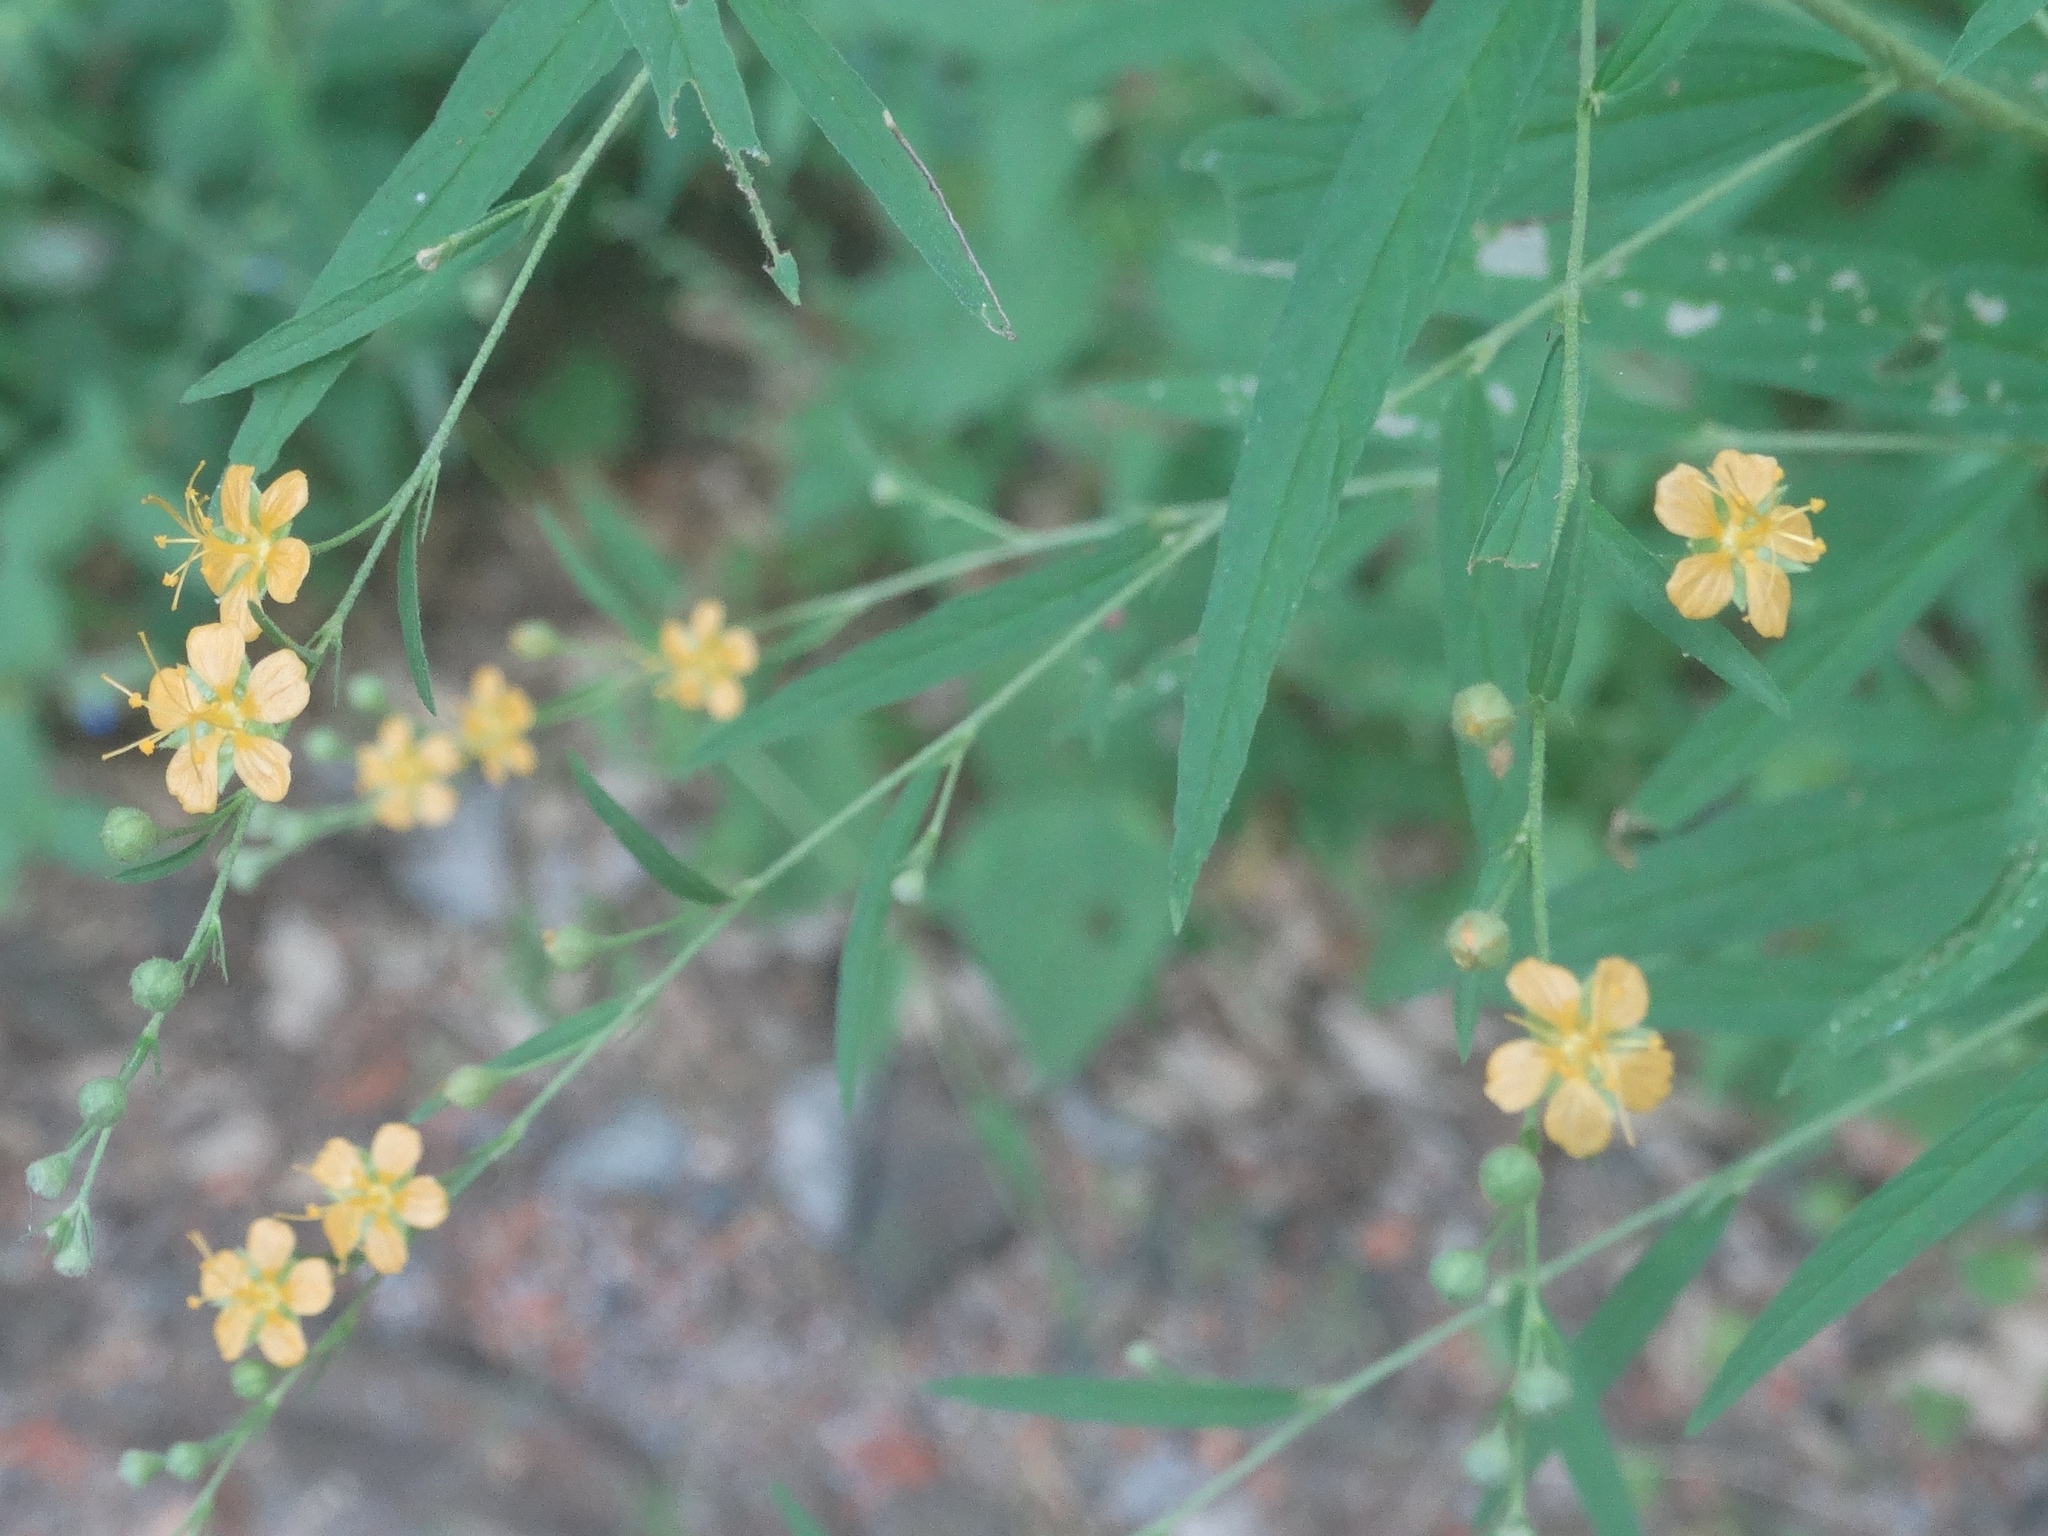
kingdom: Plantae
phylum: Tracheophyta
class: Magnoliopsida
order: Malvales
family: Malvaceae
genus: Sidastrum
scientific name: Sidastrum lodiegense
